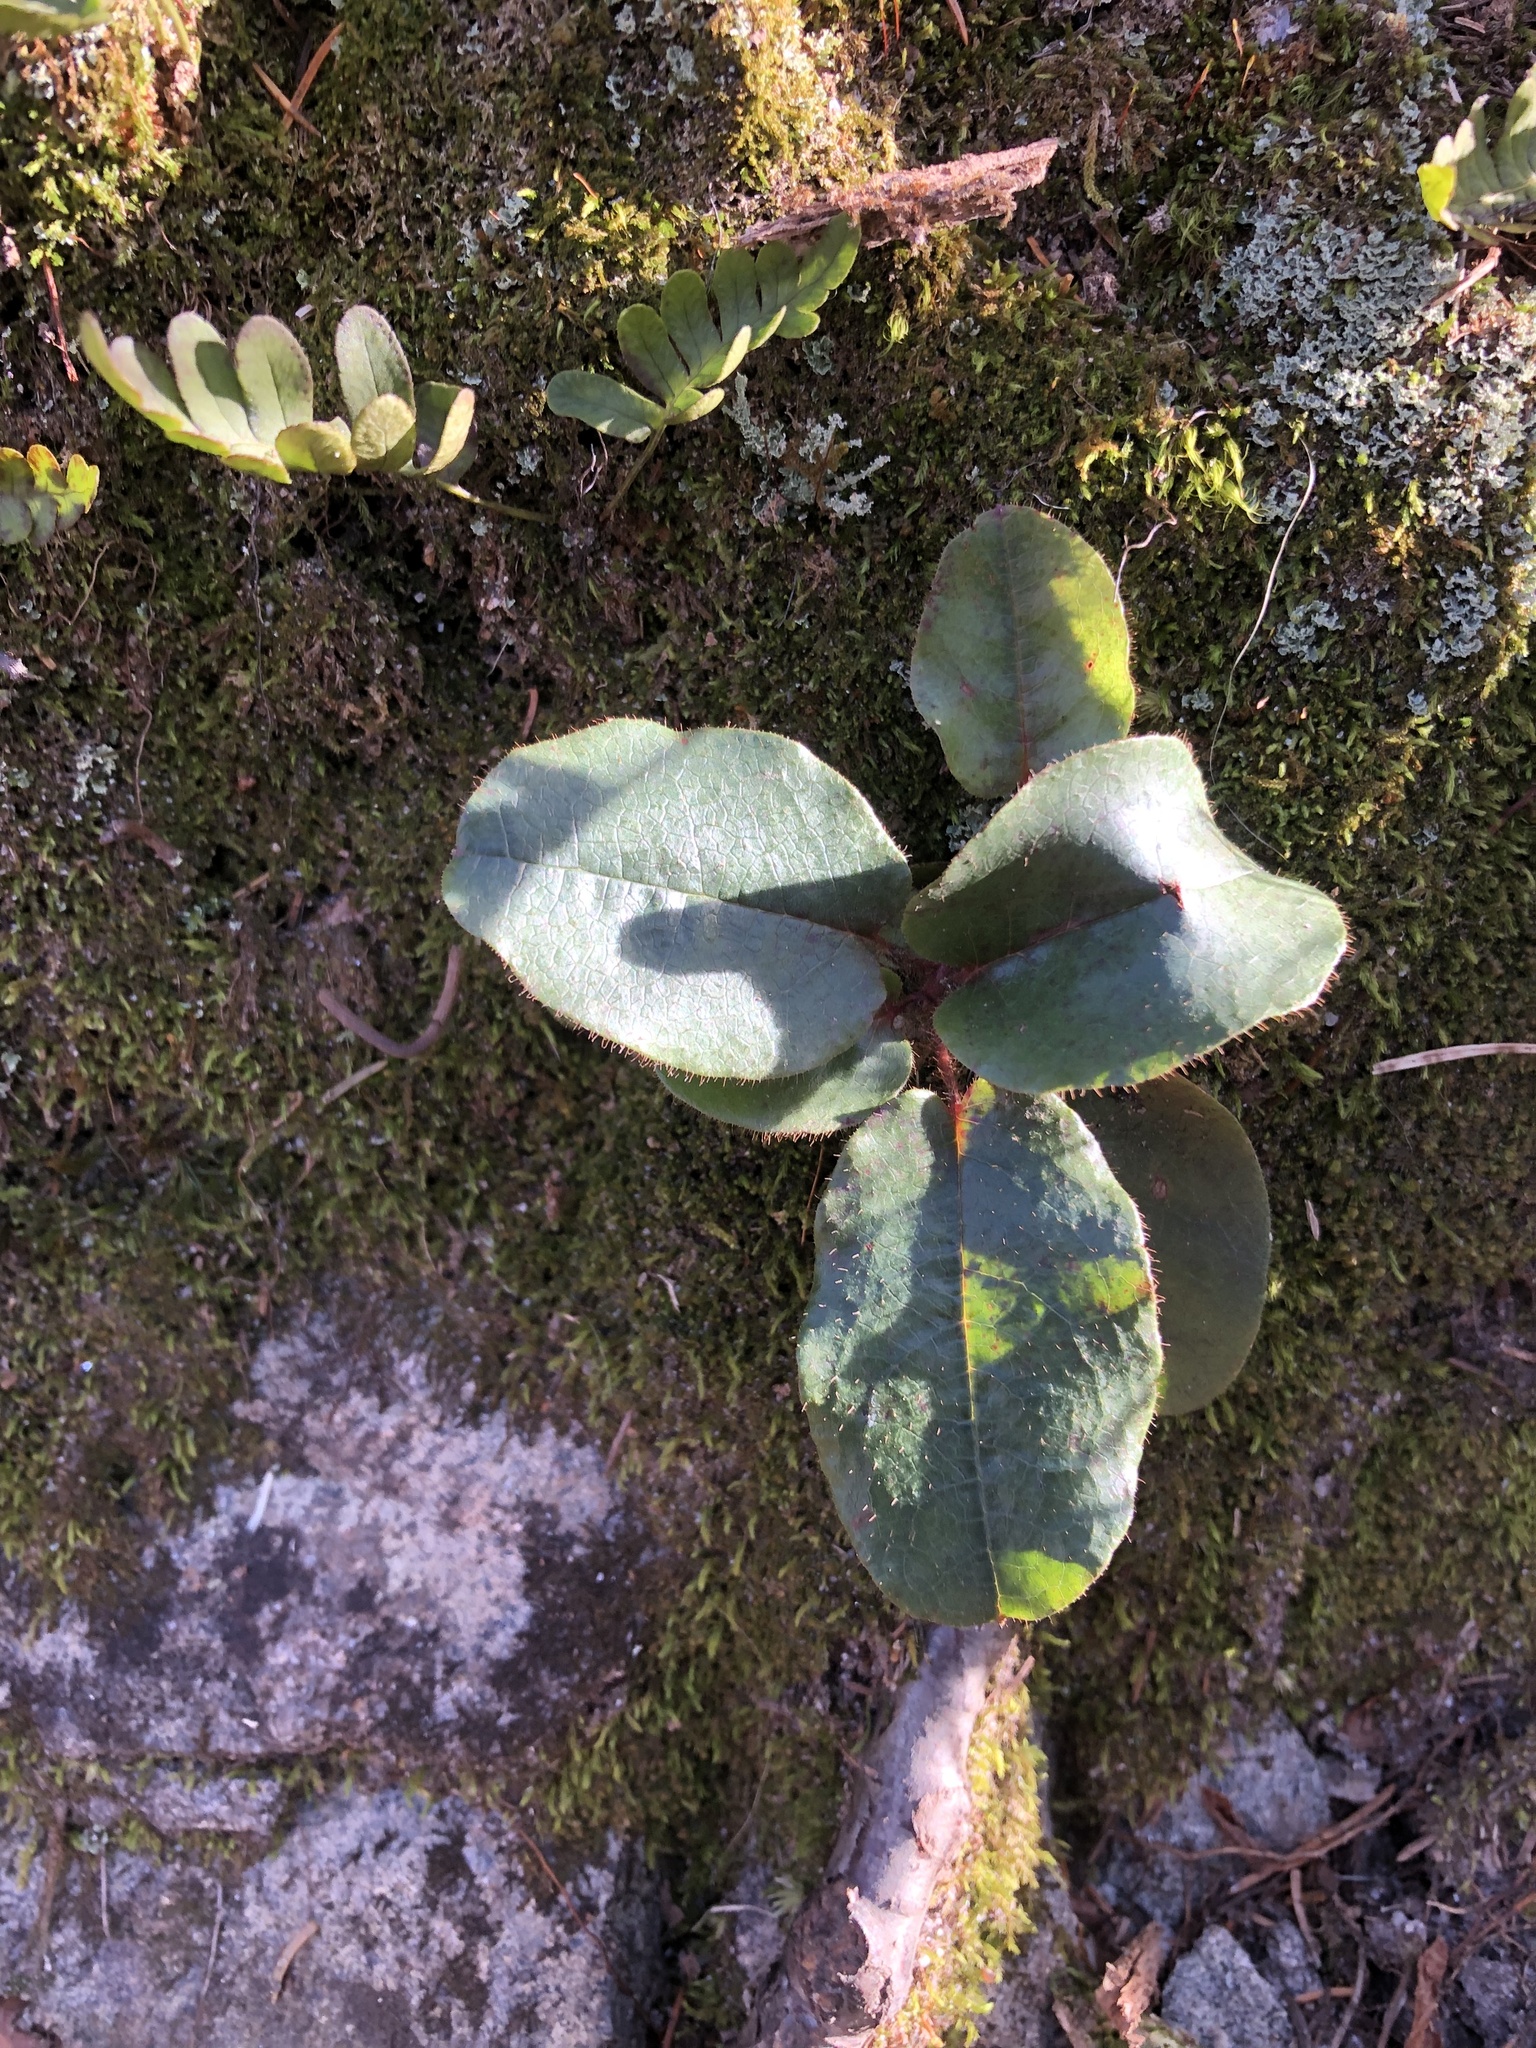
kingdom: Plantae
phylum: Tracheophyta
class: Magnoliopsida
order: Ericales
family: Ericaceae
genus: Epigaea
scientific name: Epigaea repens
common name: Gravelroot
